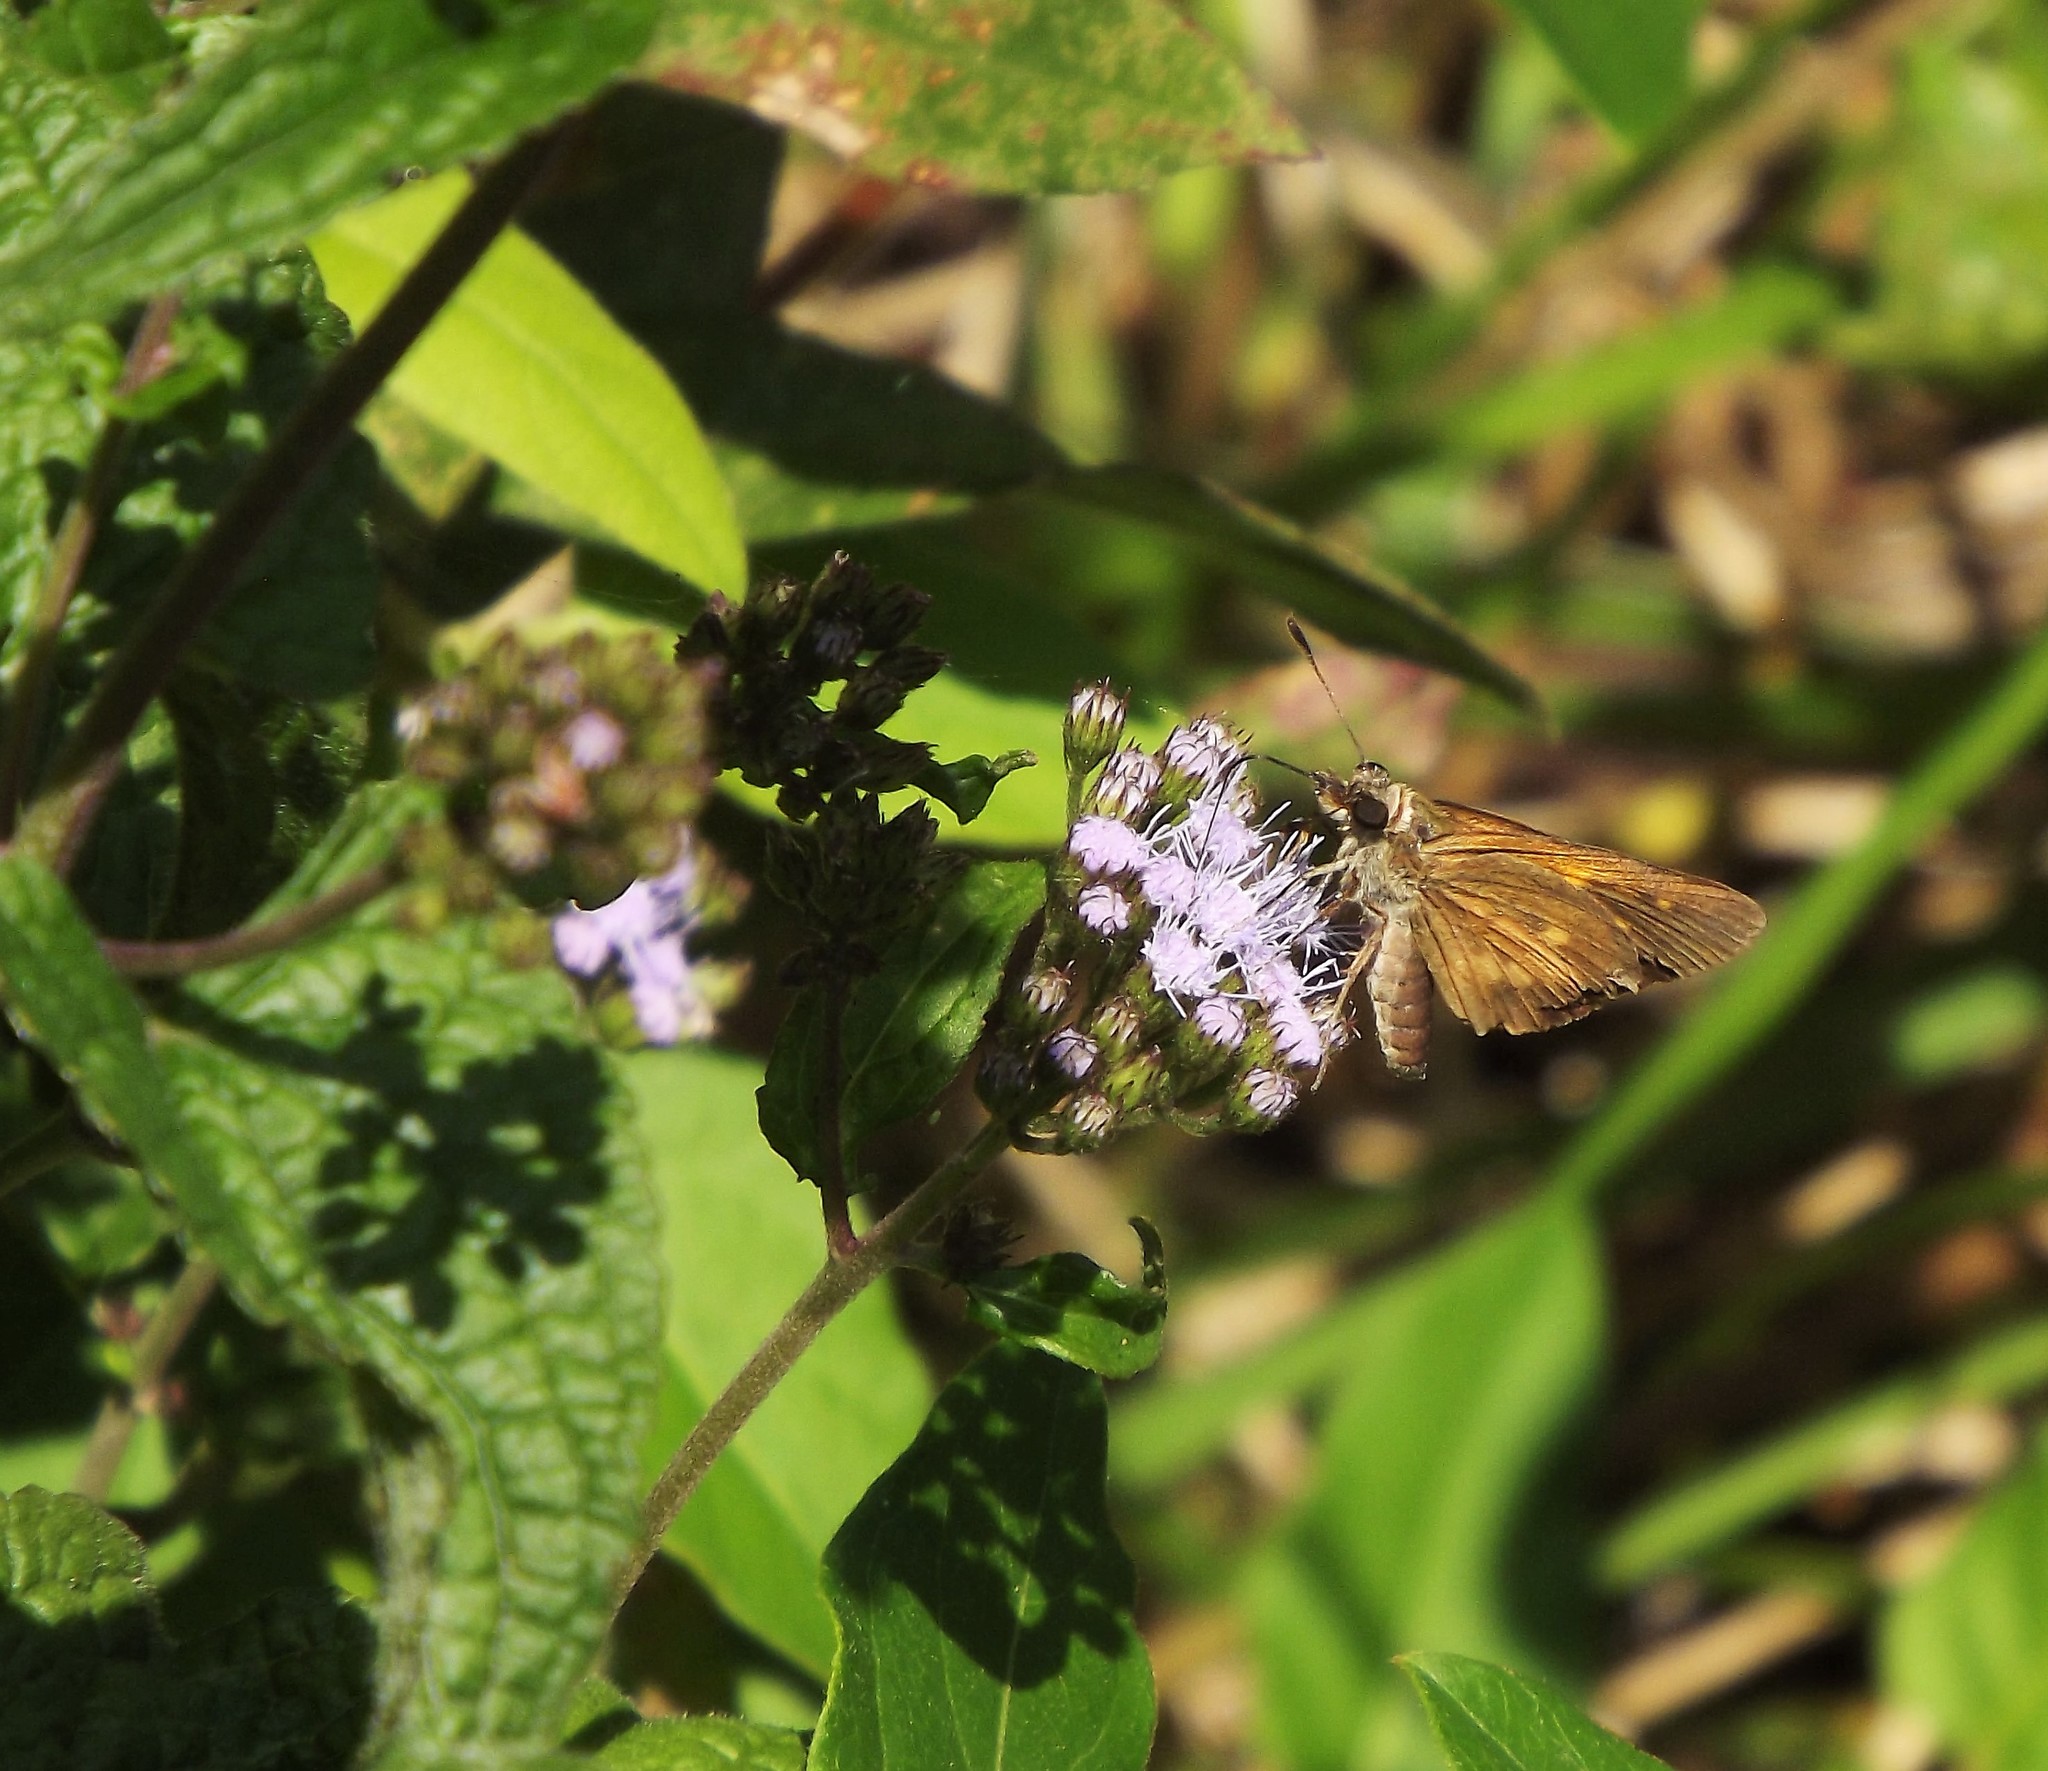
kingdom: Animalia
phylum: Arthropoda
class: Insecta
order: Lepidoptera
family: Hesperiidae
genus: Poanes
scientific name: Poanes viator
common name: Broad-winged skipper
